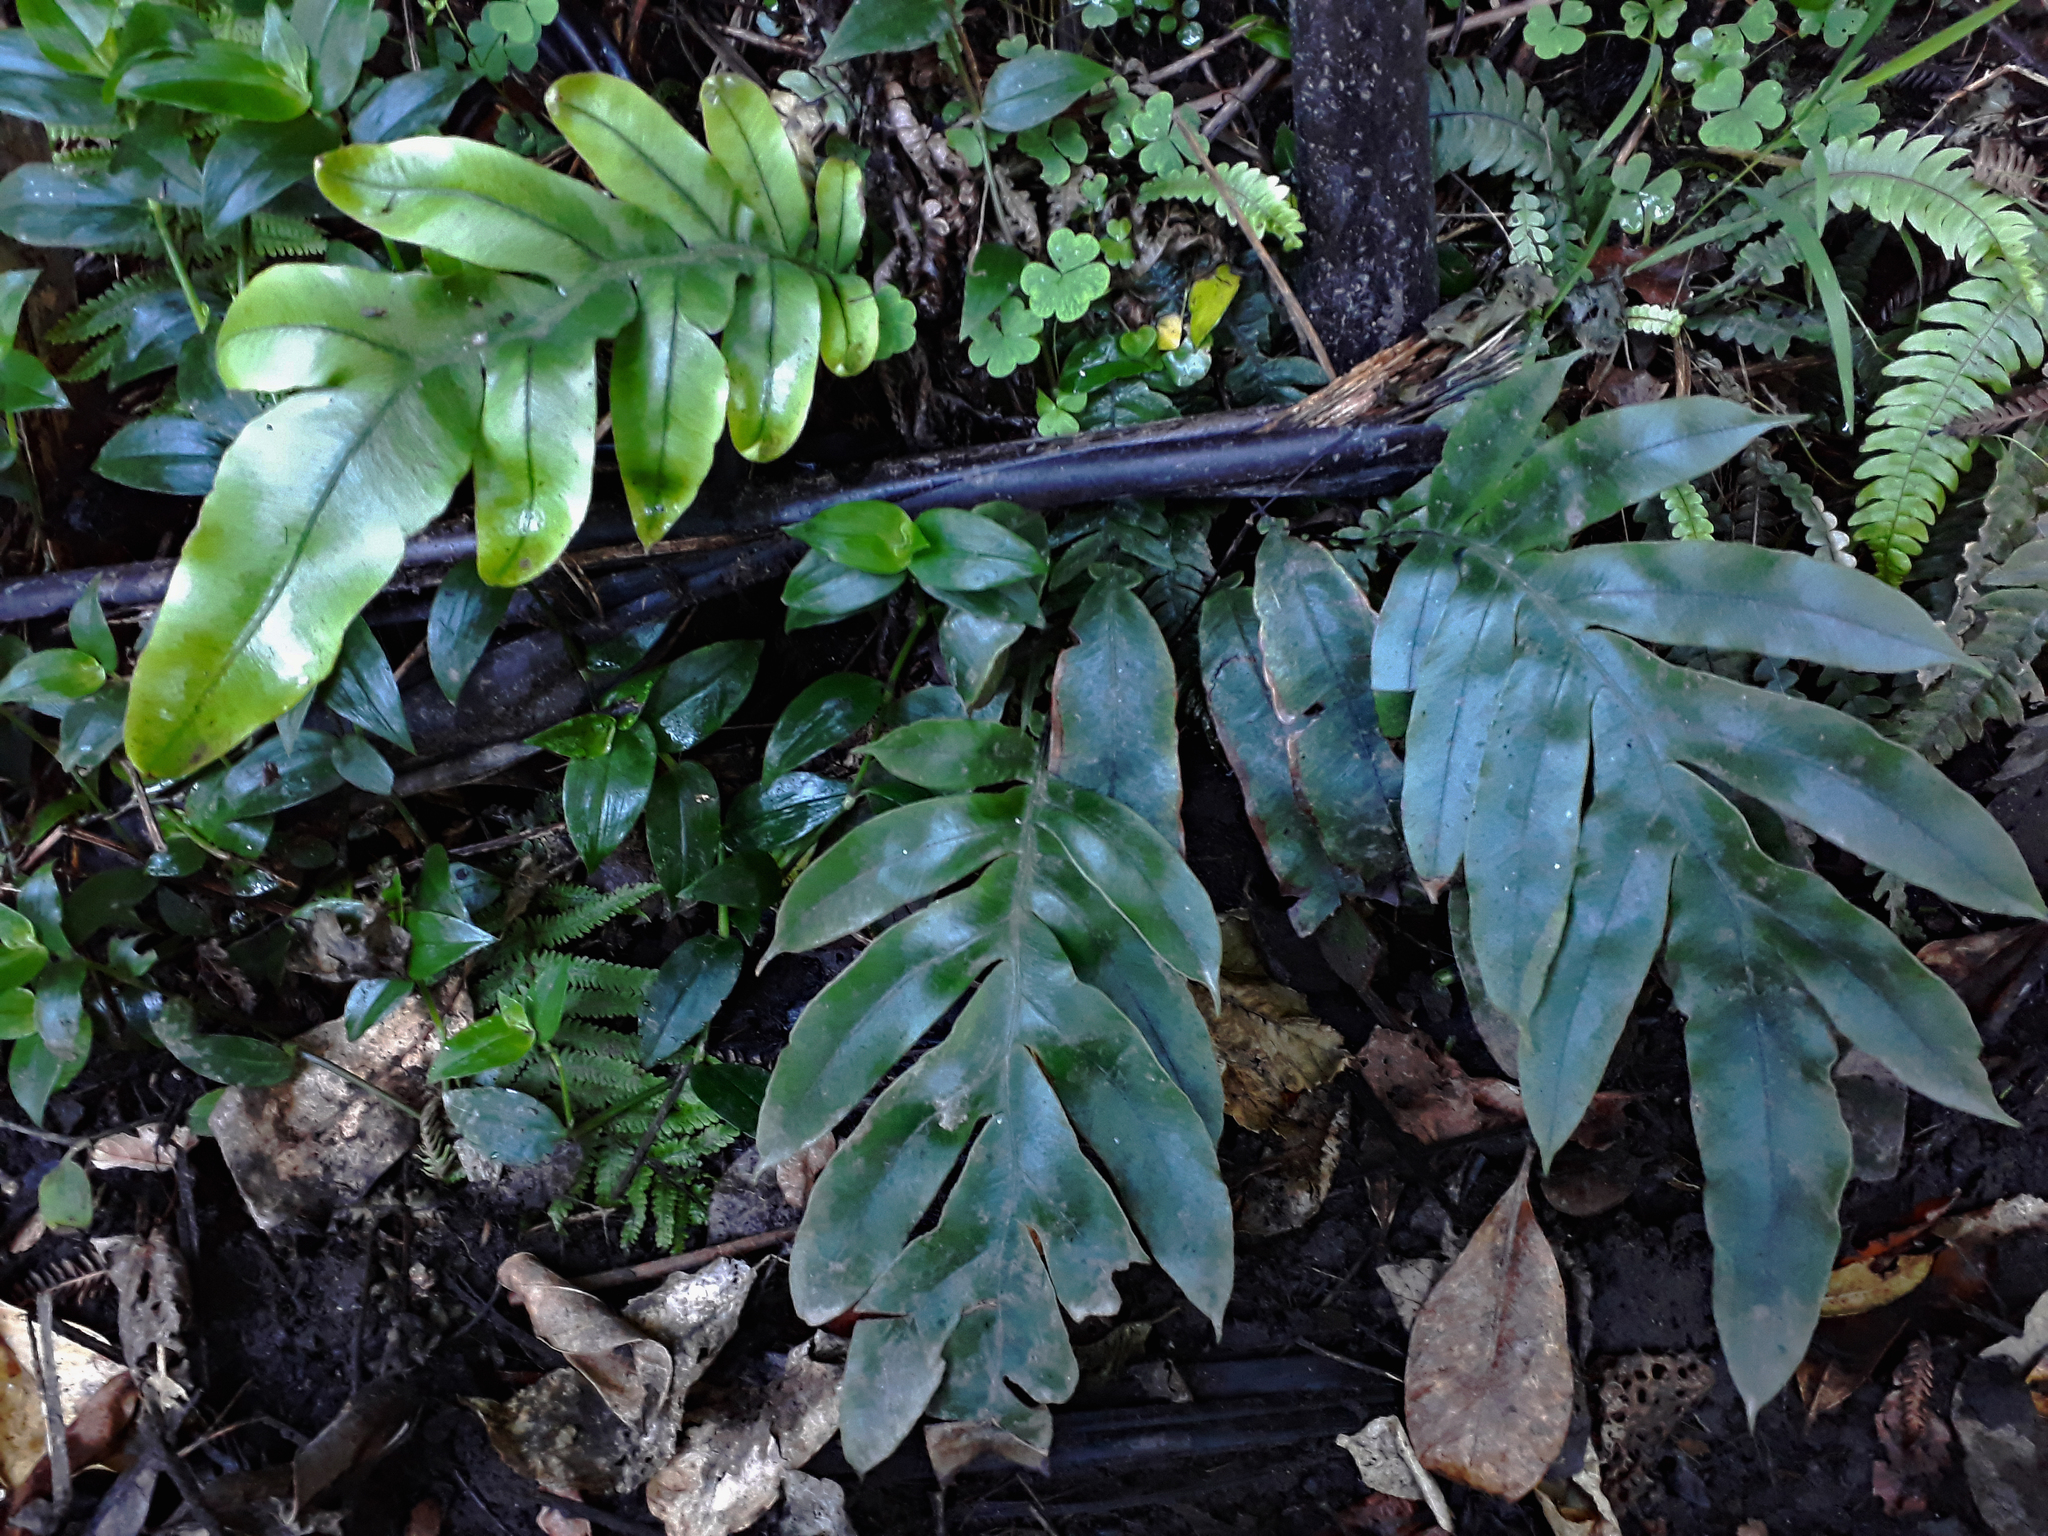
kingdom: Plantae
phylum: Tracheophyta
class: Polypodiopsida
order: Polypodiales
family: Blechnaceae
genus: Austroblechnum
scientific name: Austroblechnum colensoi
